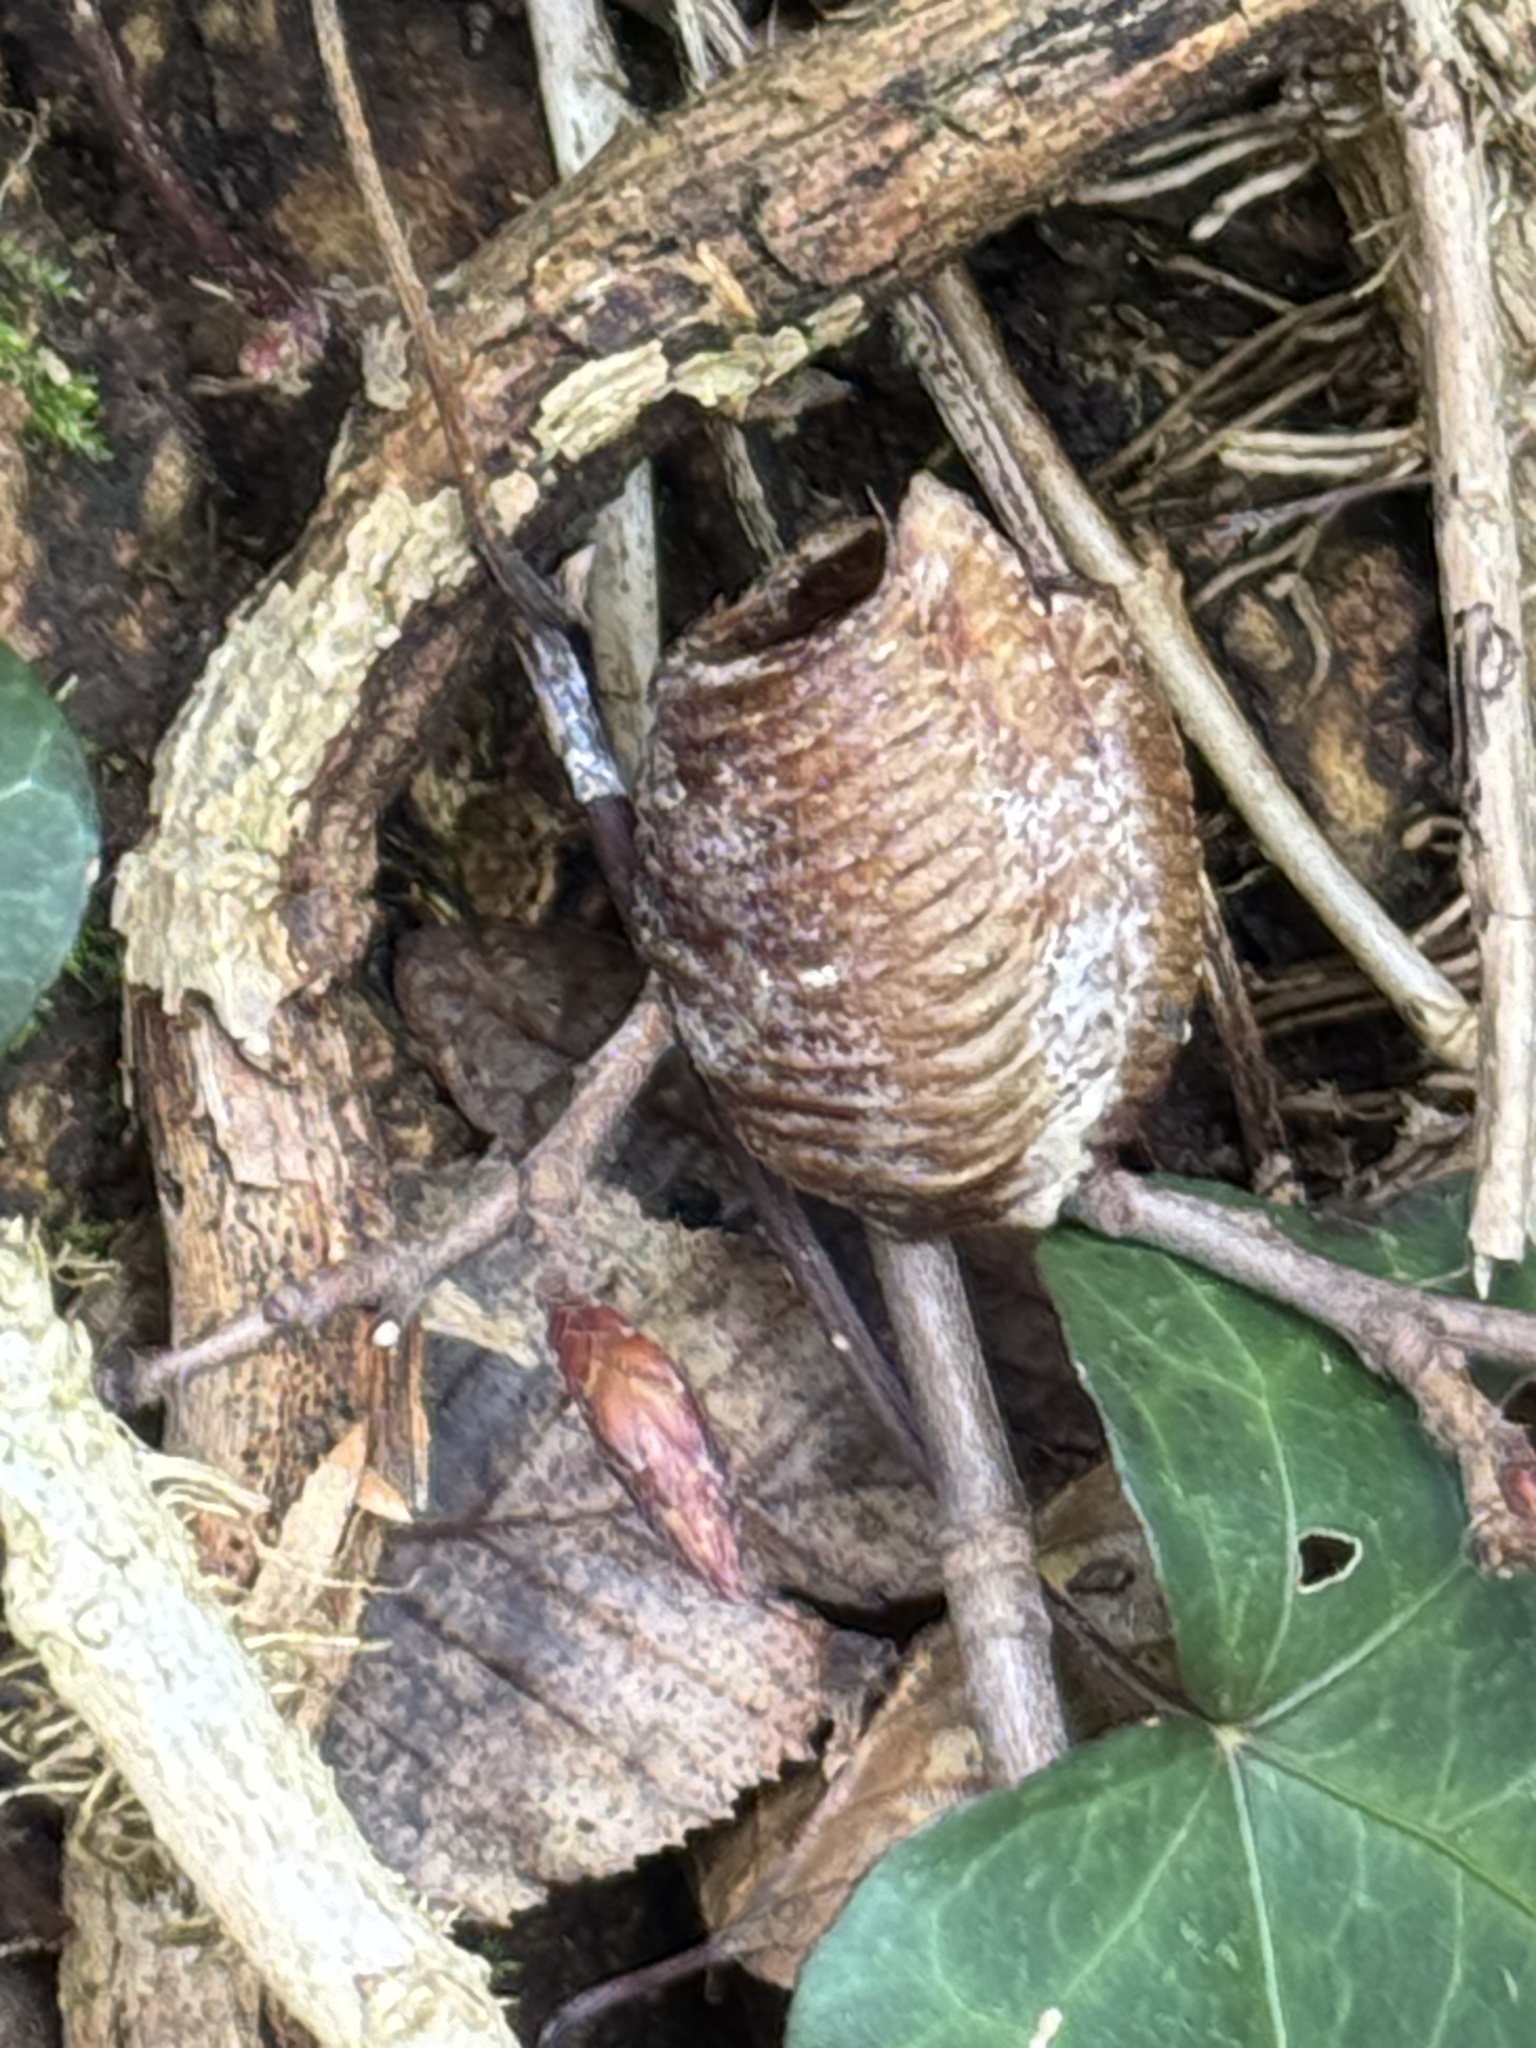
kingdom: Animalia
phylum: Arthropoda
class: Insecta
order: Mantodea
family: Mantidae
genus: Hierodula
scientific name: Hierodula transcaucasica
